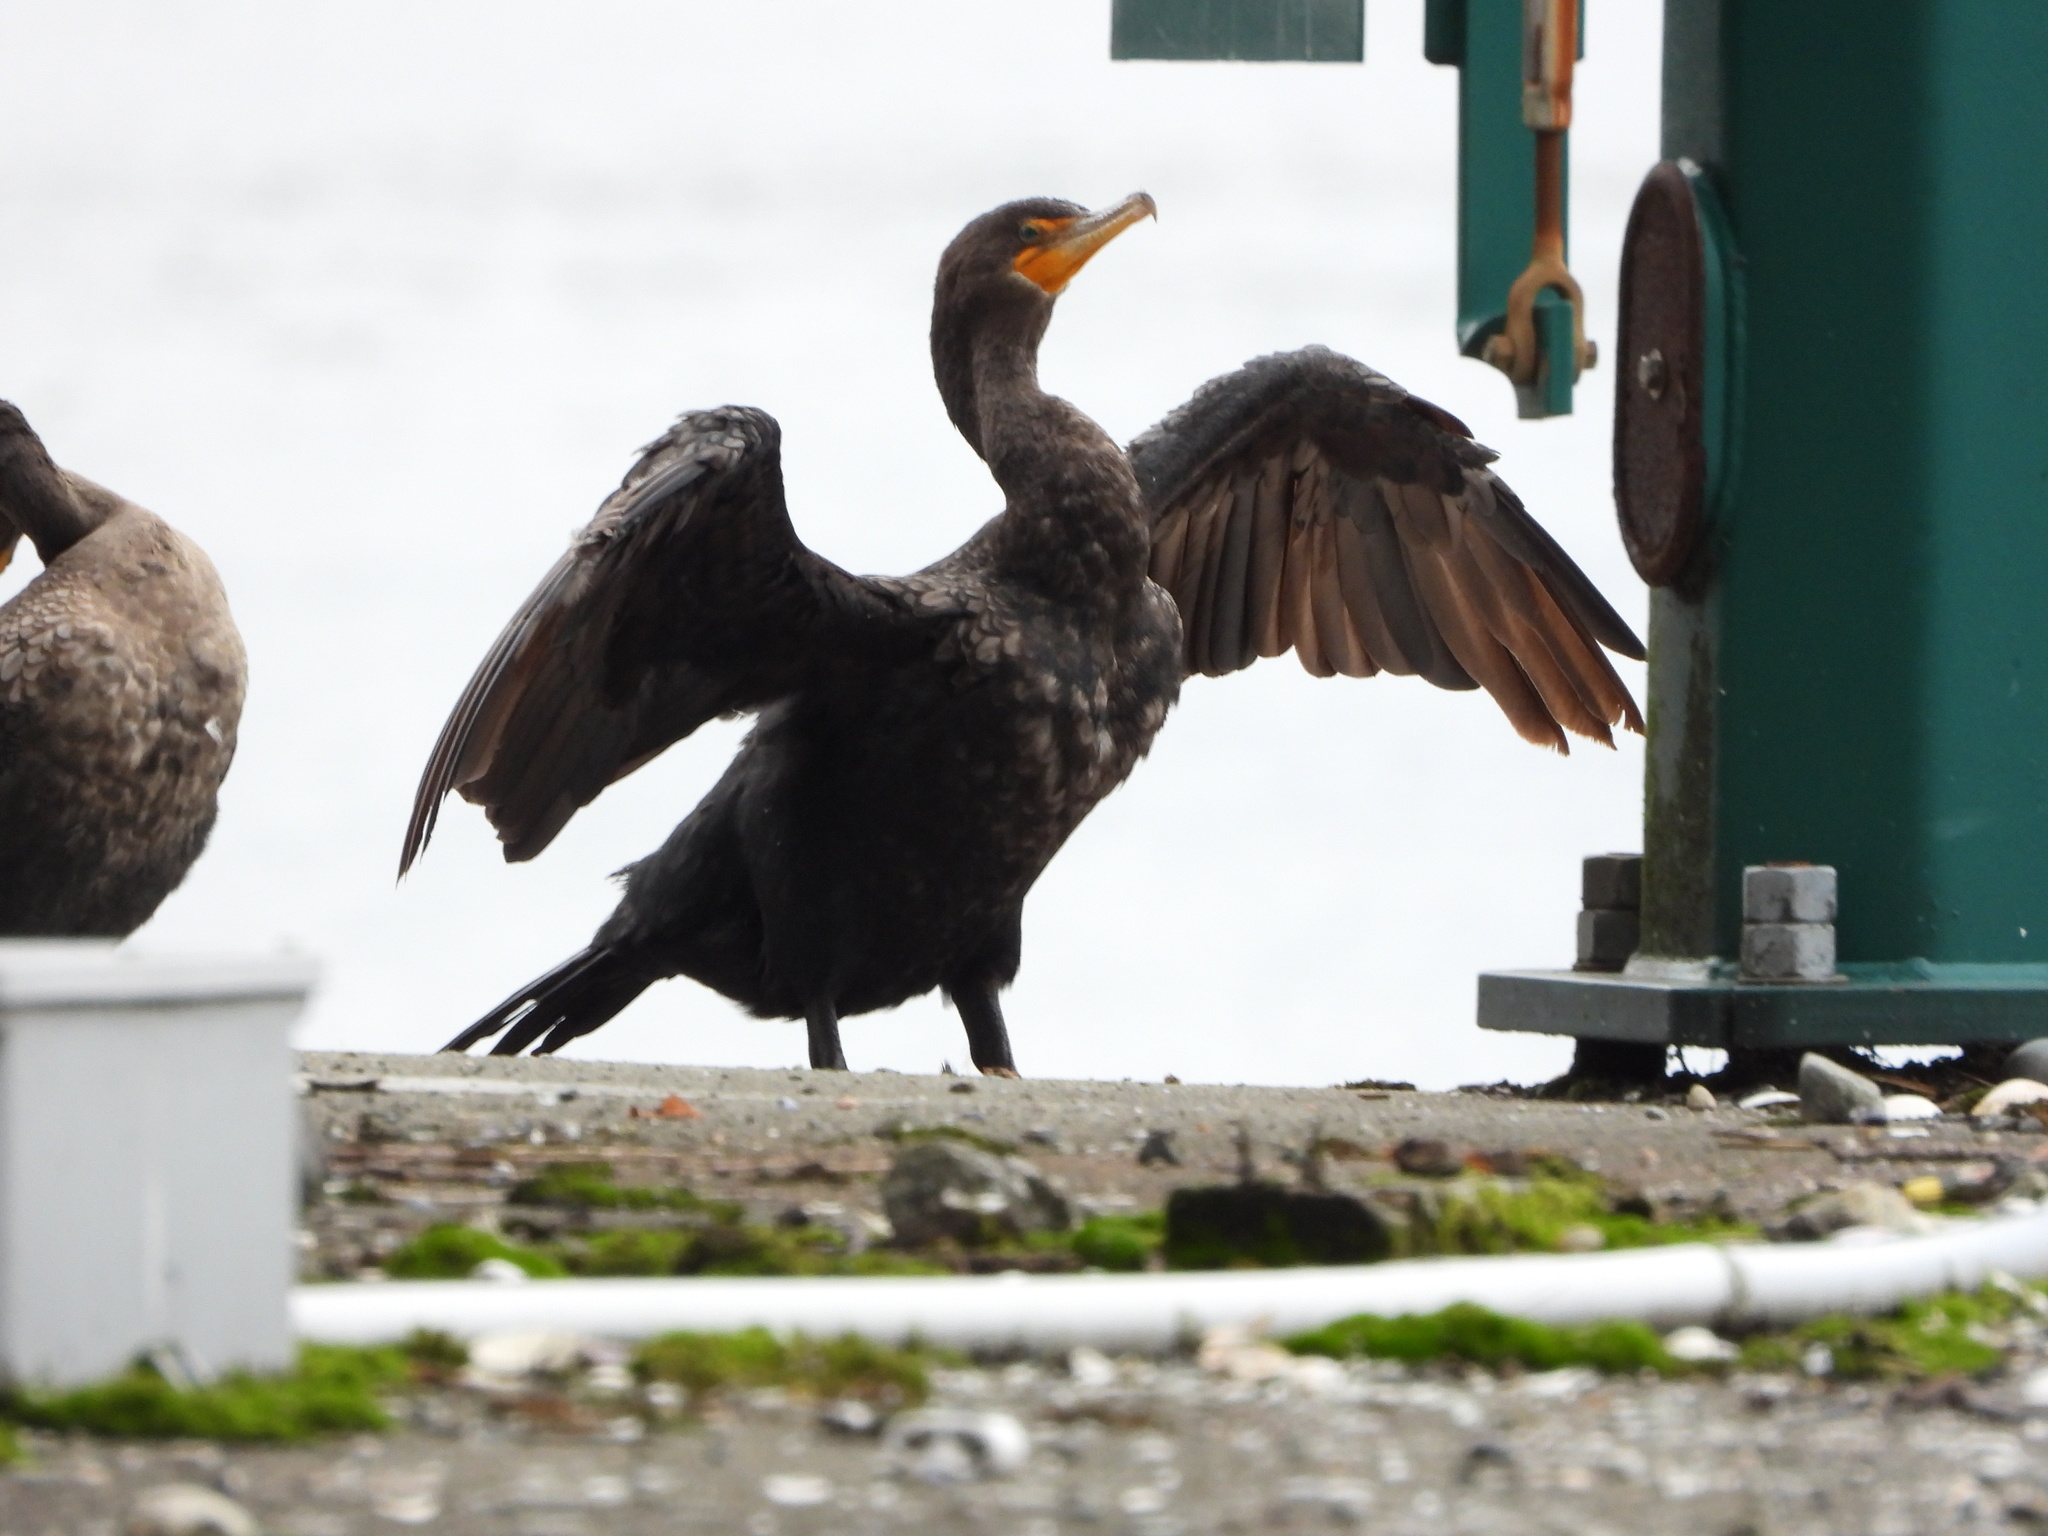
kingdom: Animalia
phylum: Chordata
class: Aves
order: Suliformes
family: Phalacrocoracidae
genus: Phalacrocorax
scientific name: Phalacrocorax auritus
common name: Double-crested cormorant
